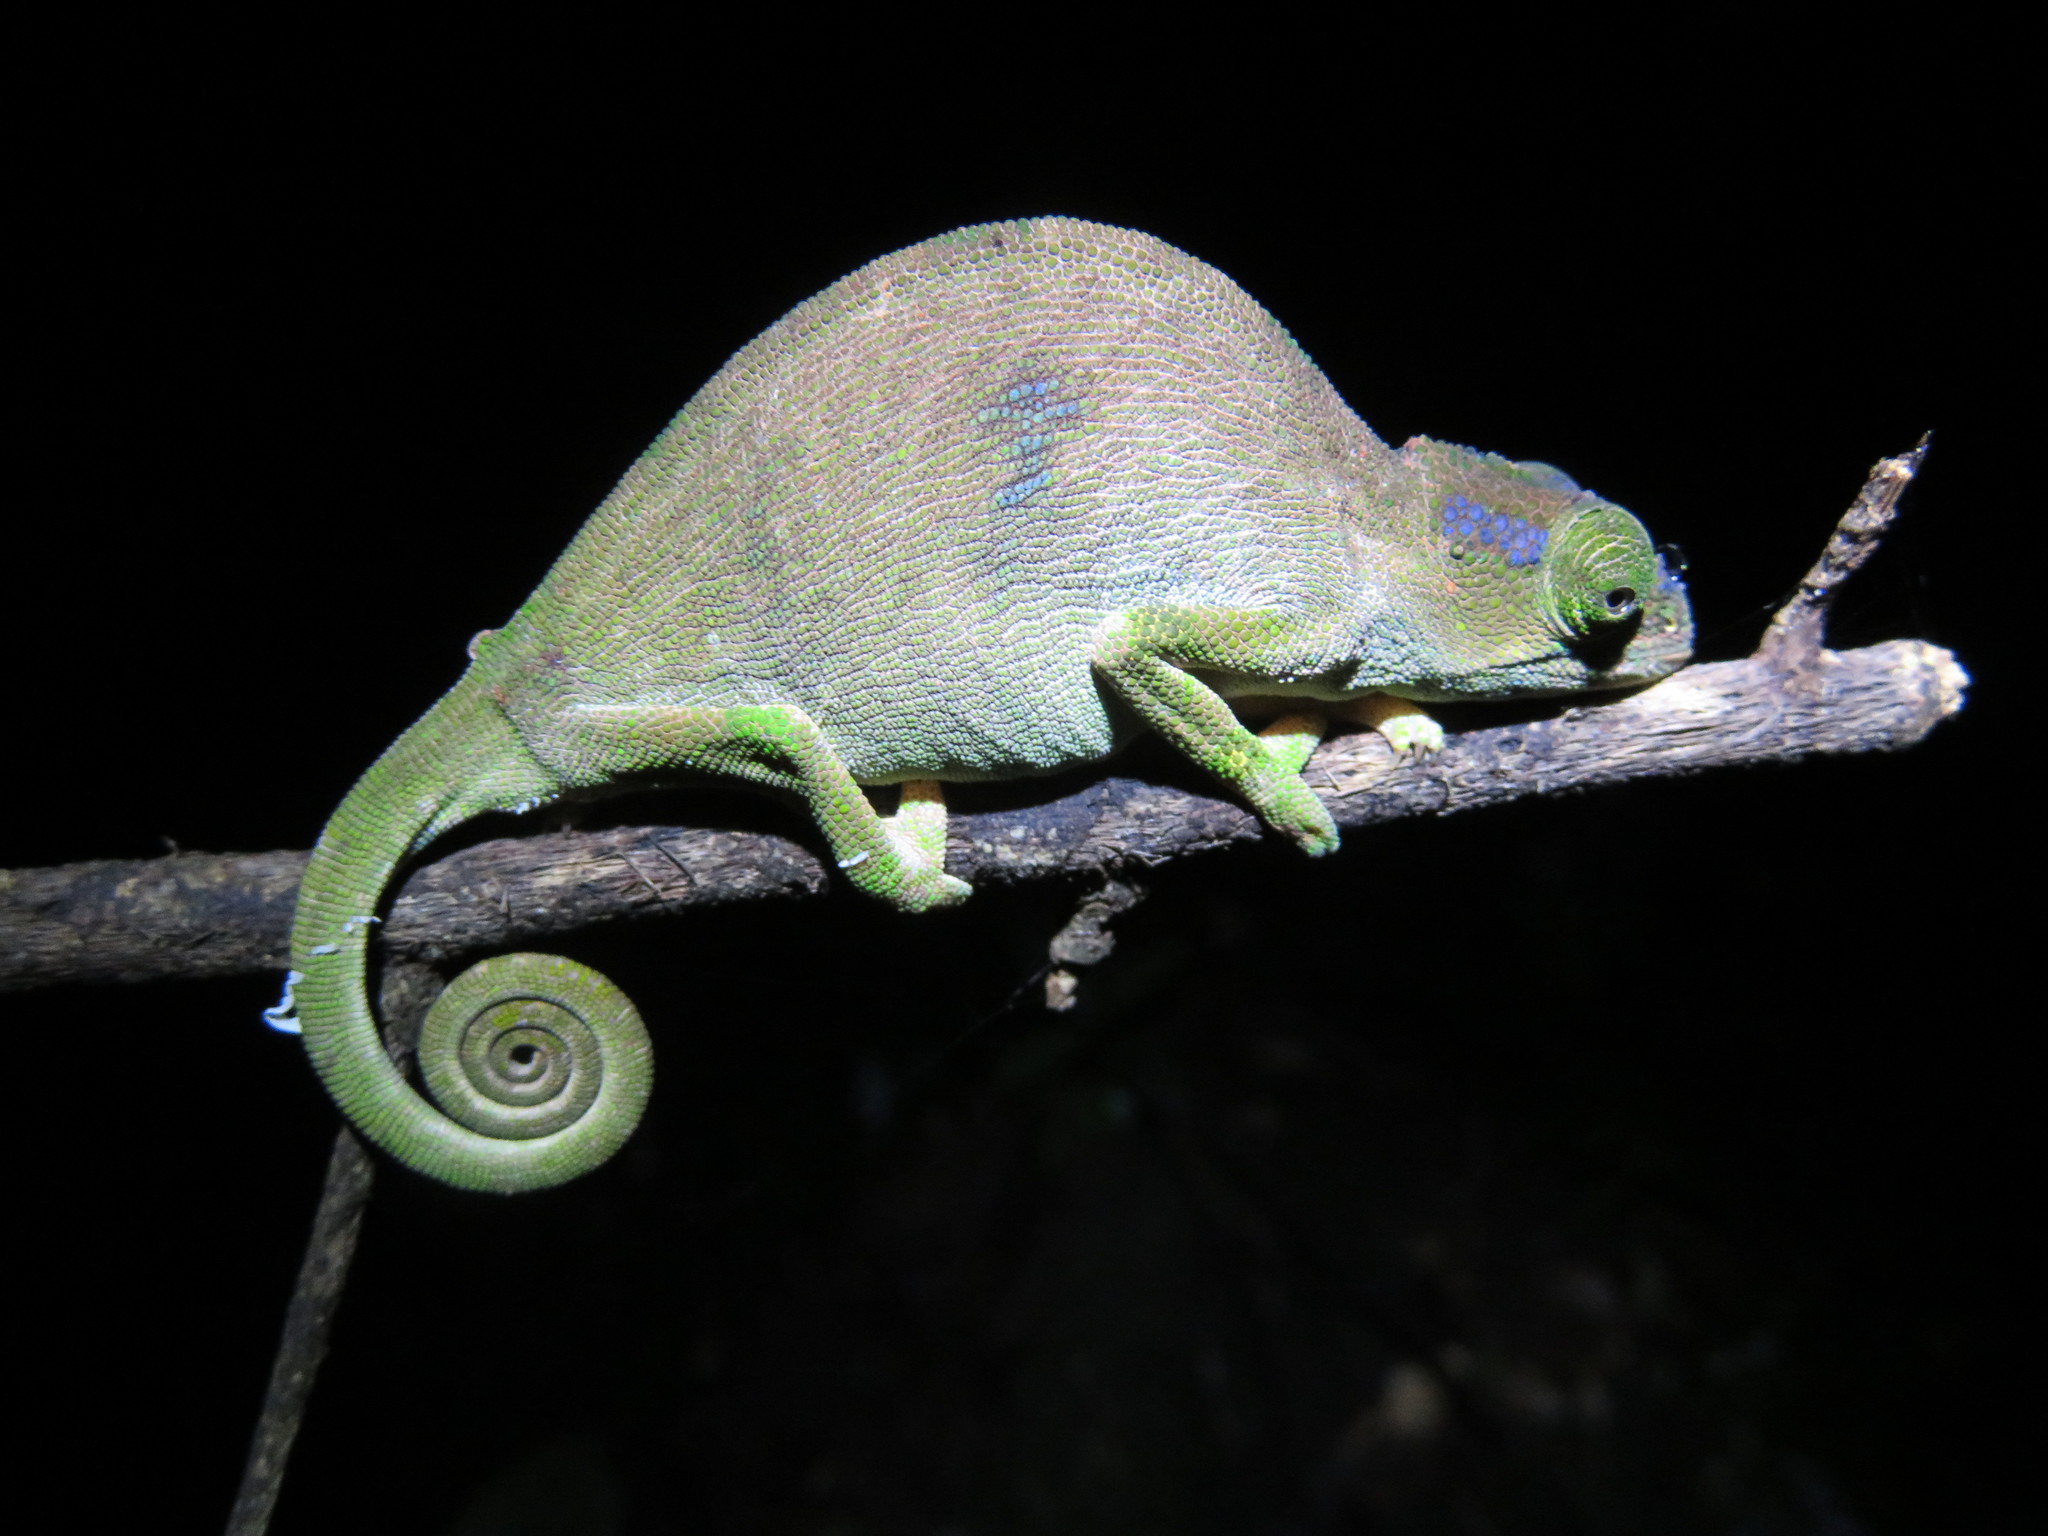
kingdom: Animalia
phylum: Chordata
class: Squamata
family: Chamaeleonidae
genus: Kinyongia
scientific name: Kinyongia oxyrhina
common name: Rednose dwarf chameleon
